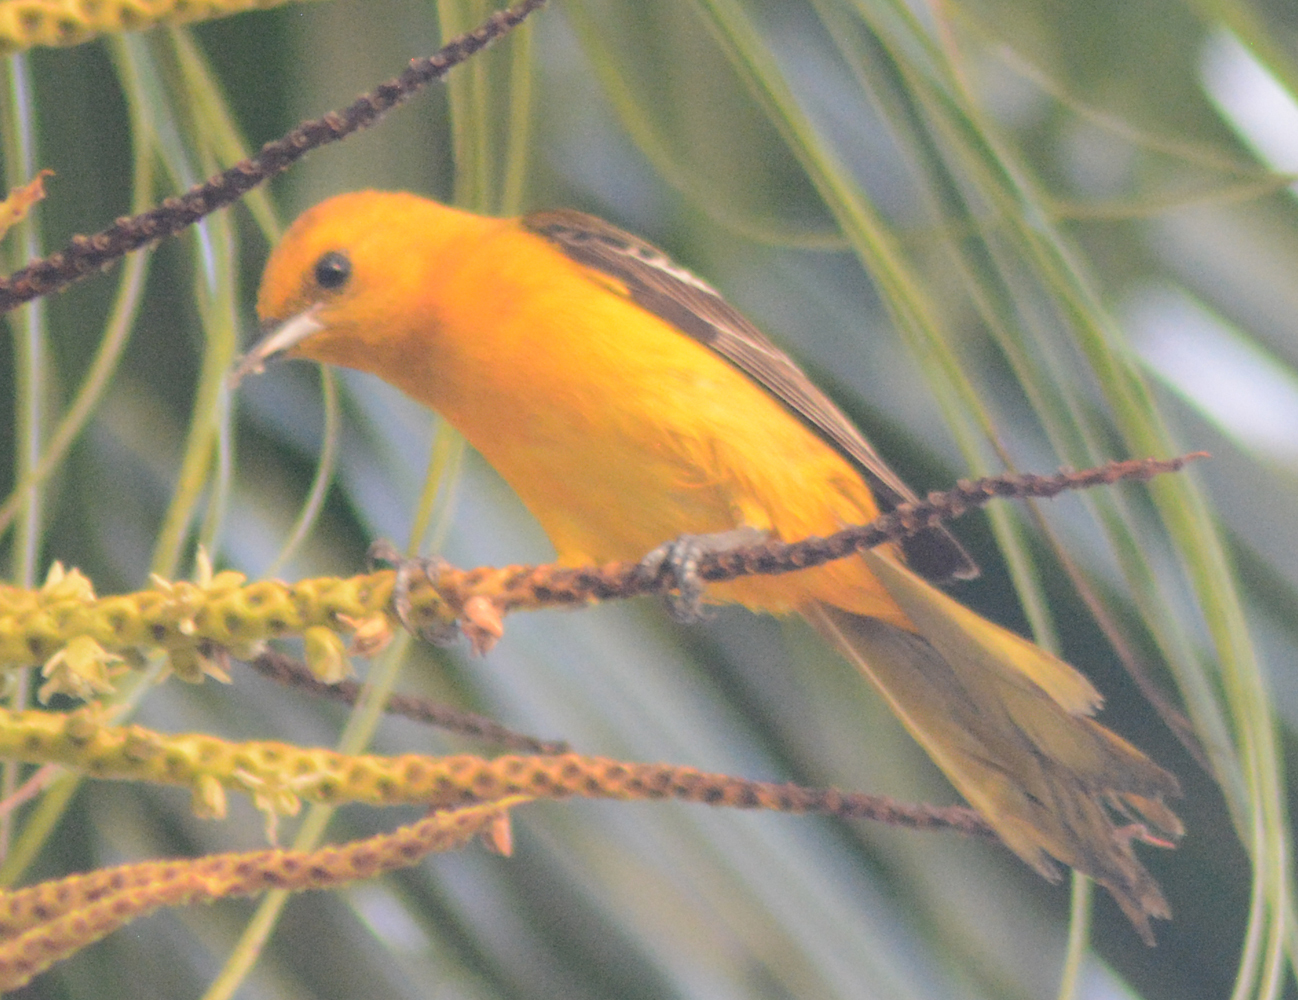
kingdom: Animalia
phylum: Chordata
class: Aves
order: Passeriformes
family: Icteridae
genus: Icterus
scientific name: Icterus cucullatus
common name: Hooded oriole
